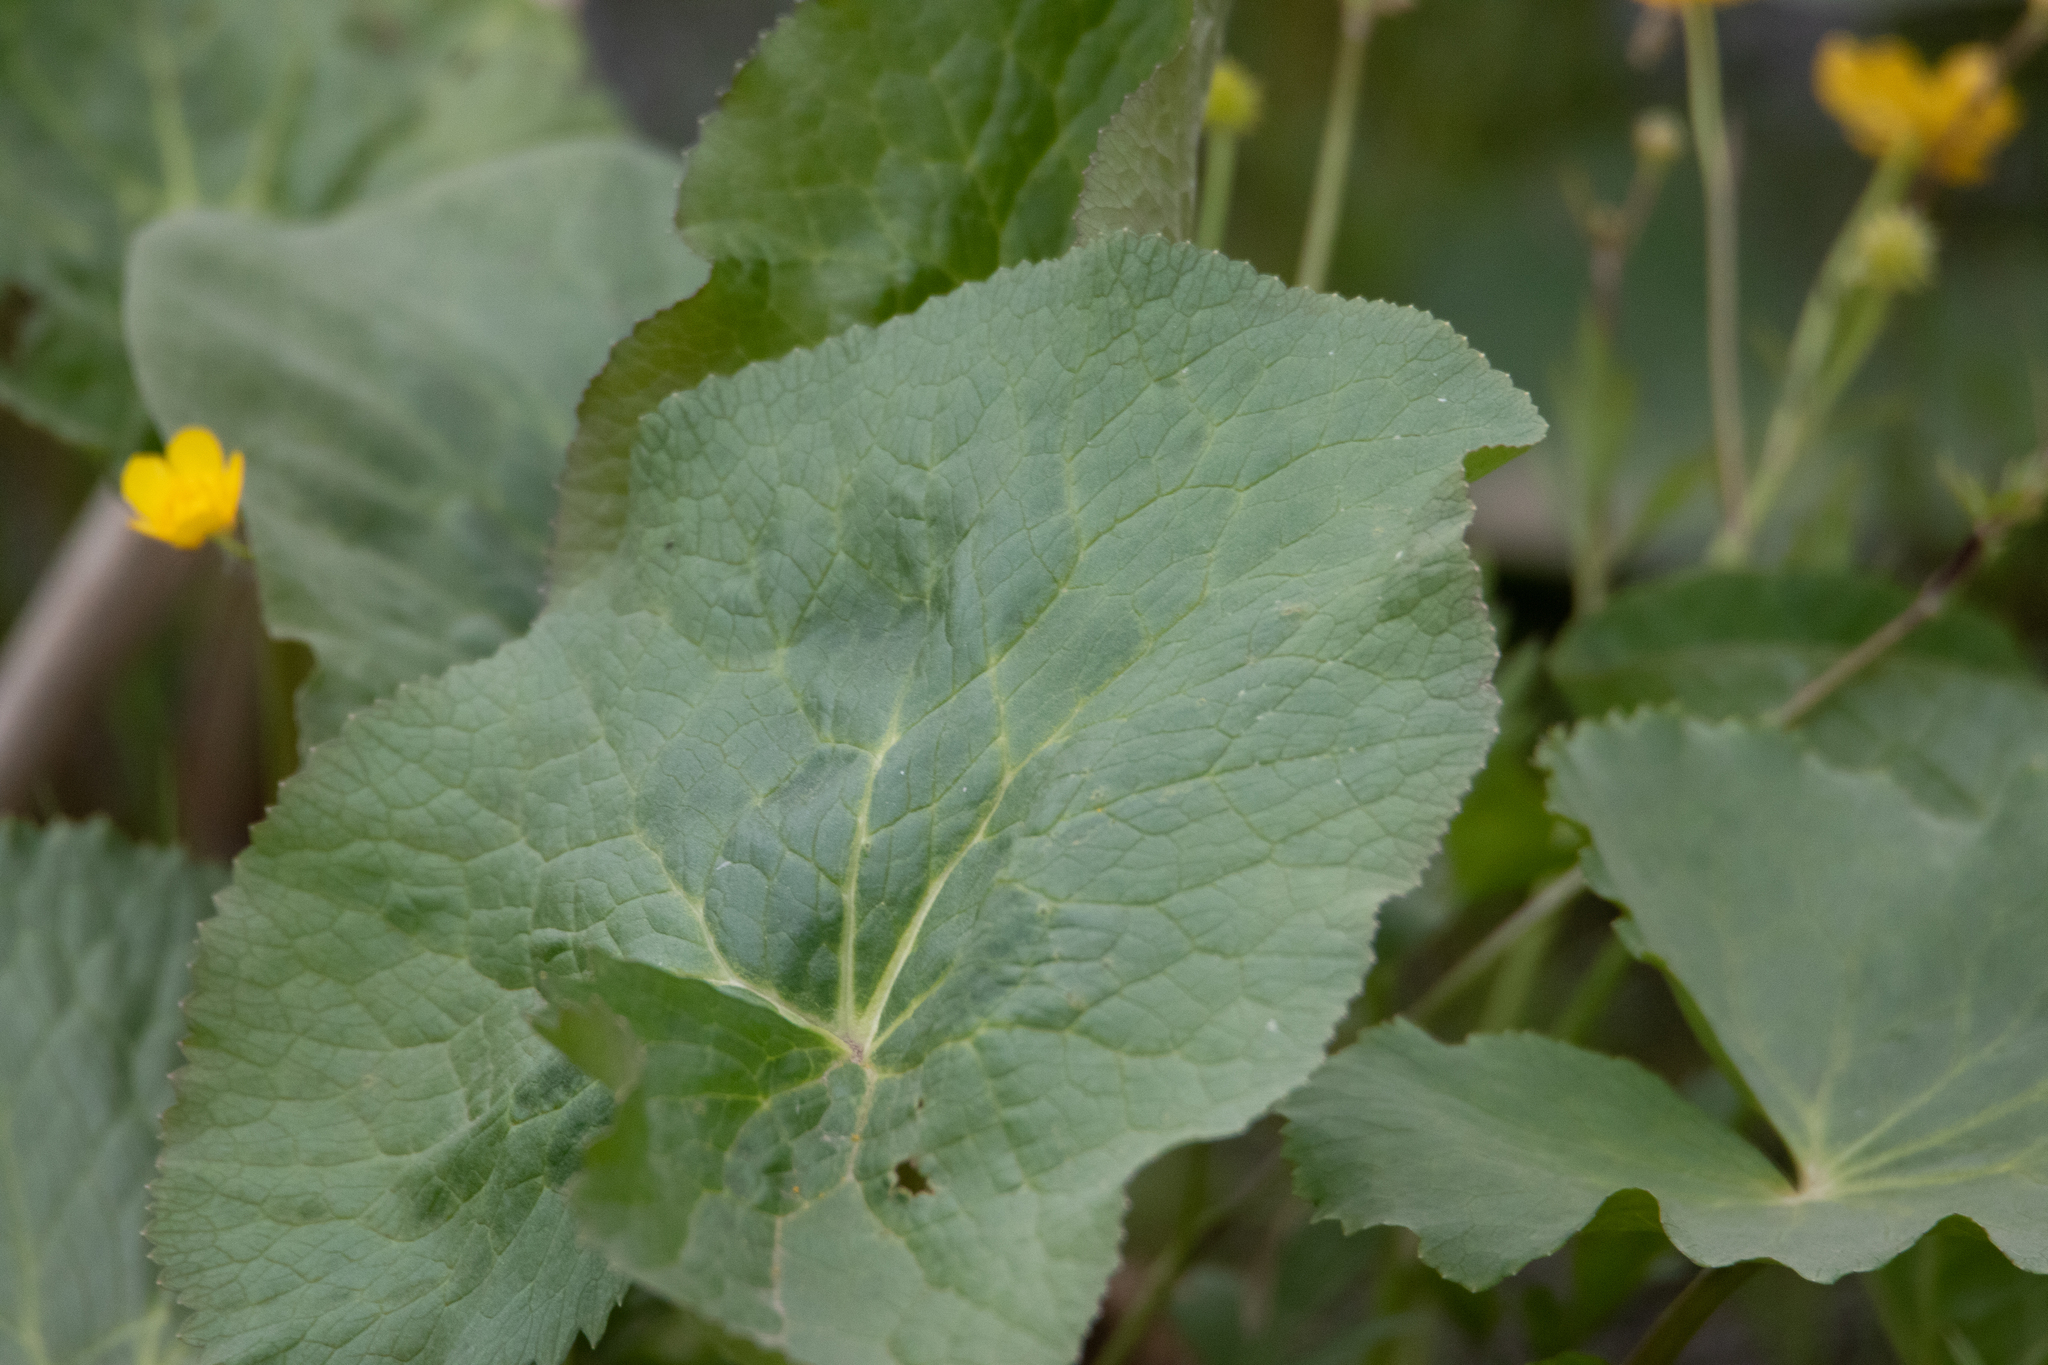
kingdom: Plantae
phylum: Tracheophyta
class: Magnoliopsida
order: Ranunculales
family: Ranunculaceae
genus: Caltha
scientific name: Caltha palustris
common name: Marsh marigold
